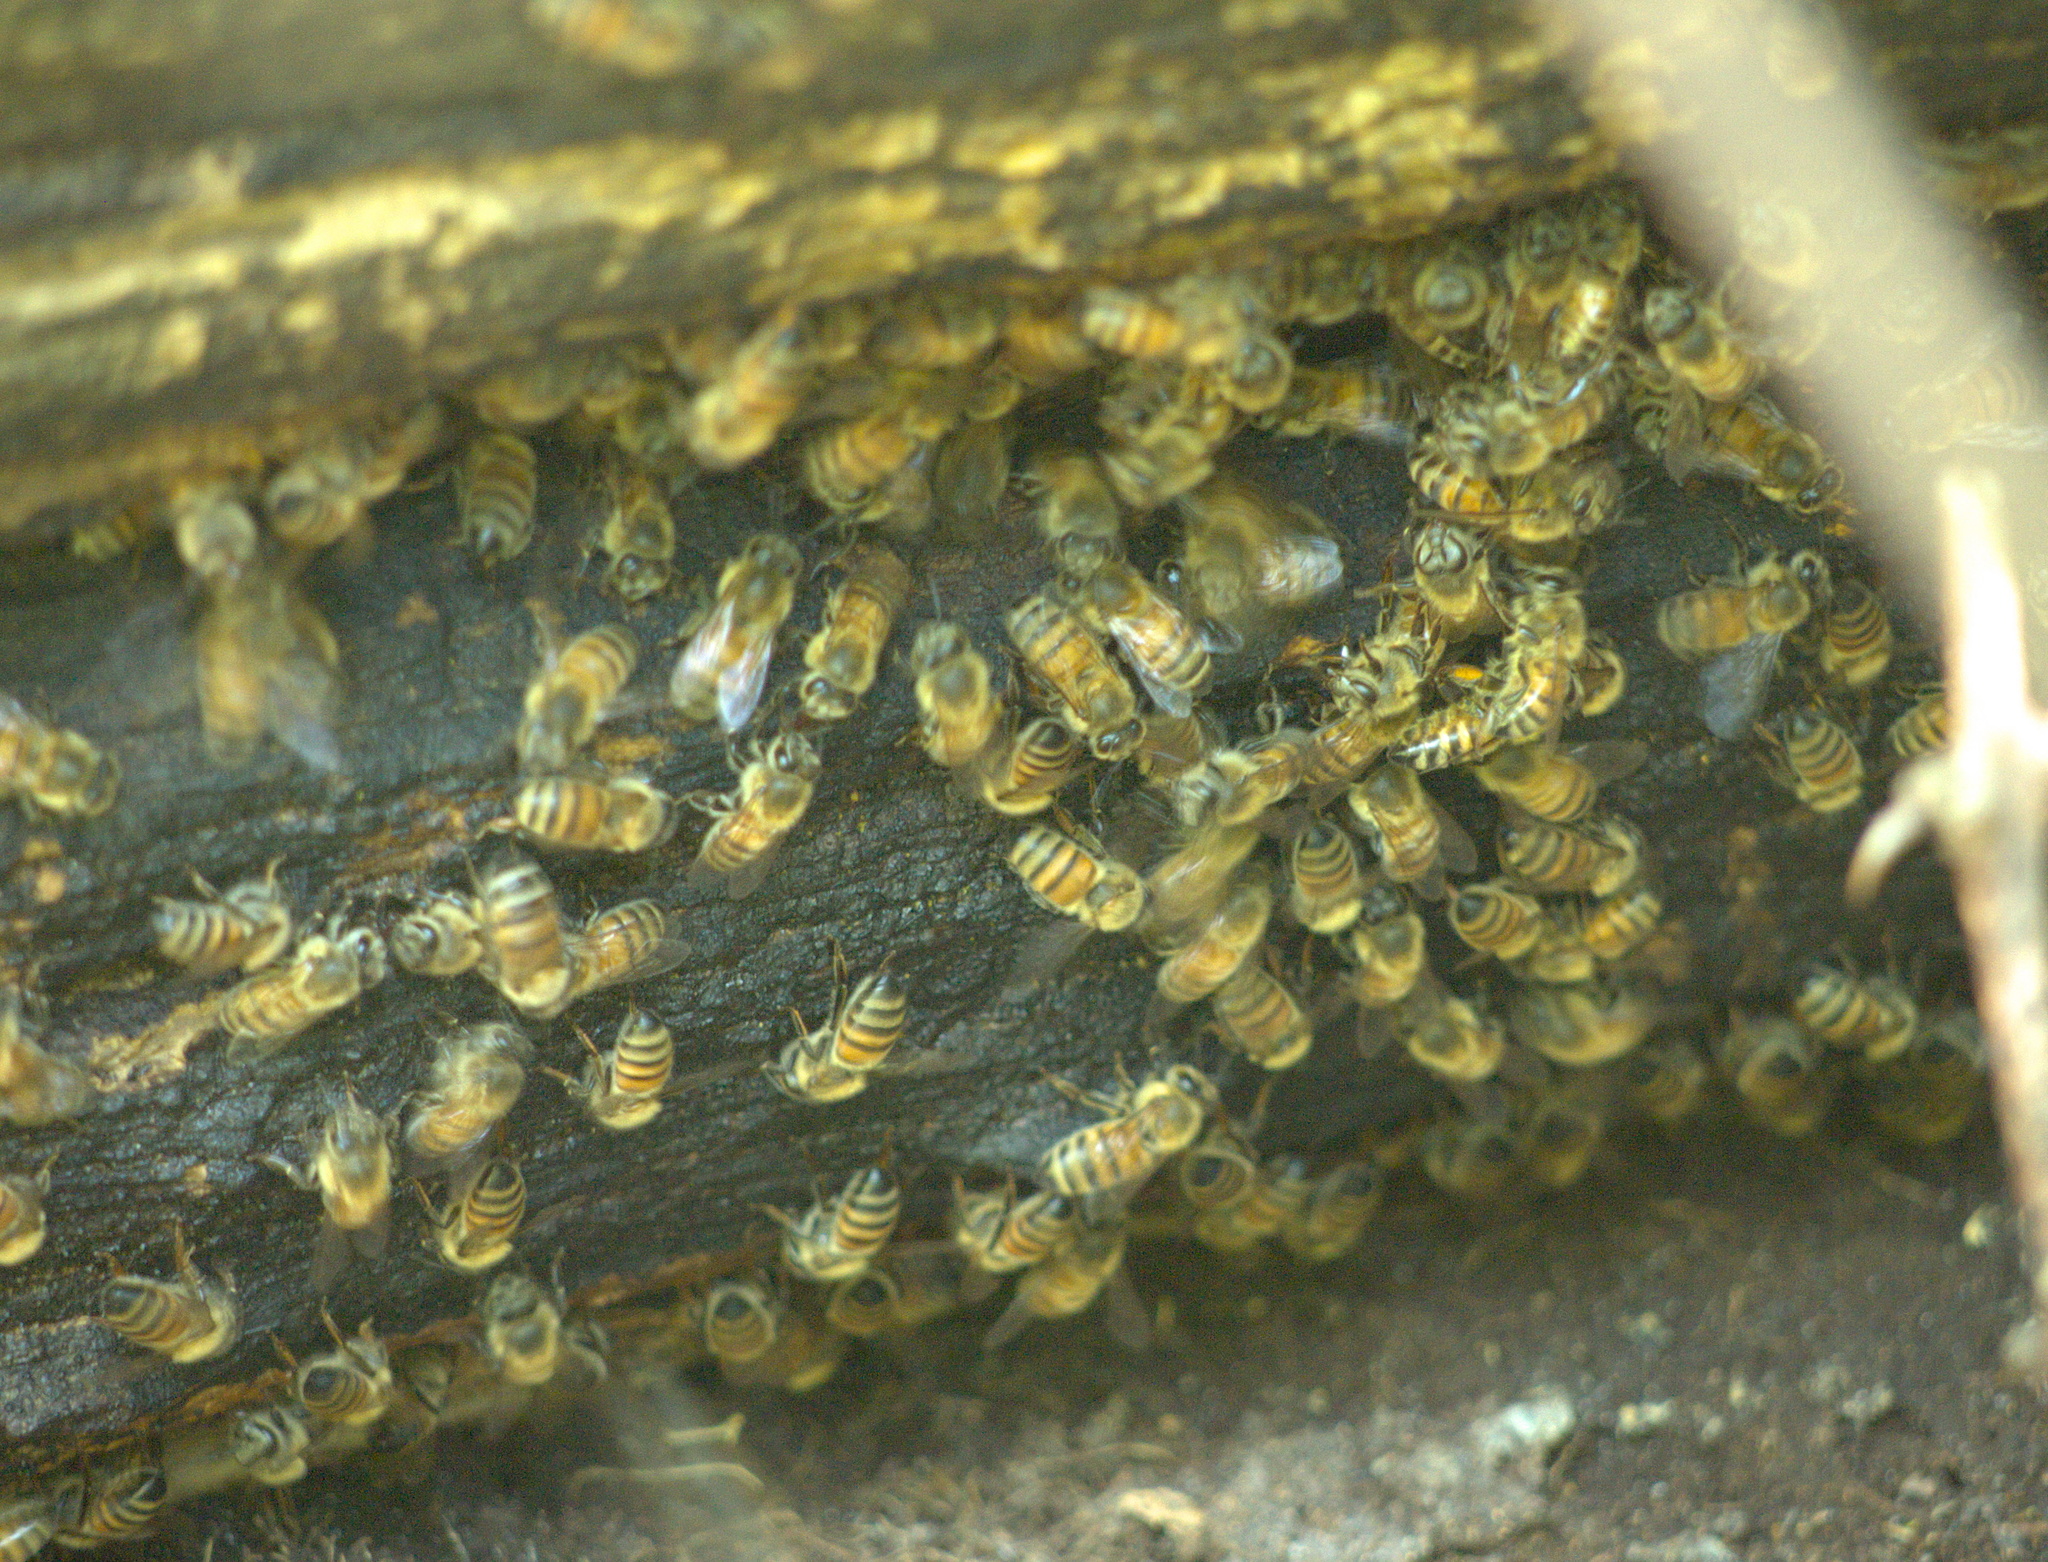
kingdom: Animalia
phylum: Arthropoda
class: Insecta
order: Hymenoptera
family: Apidae
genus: Apis
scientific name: Apis mellifera
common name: Honey bee
